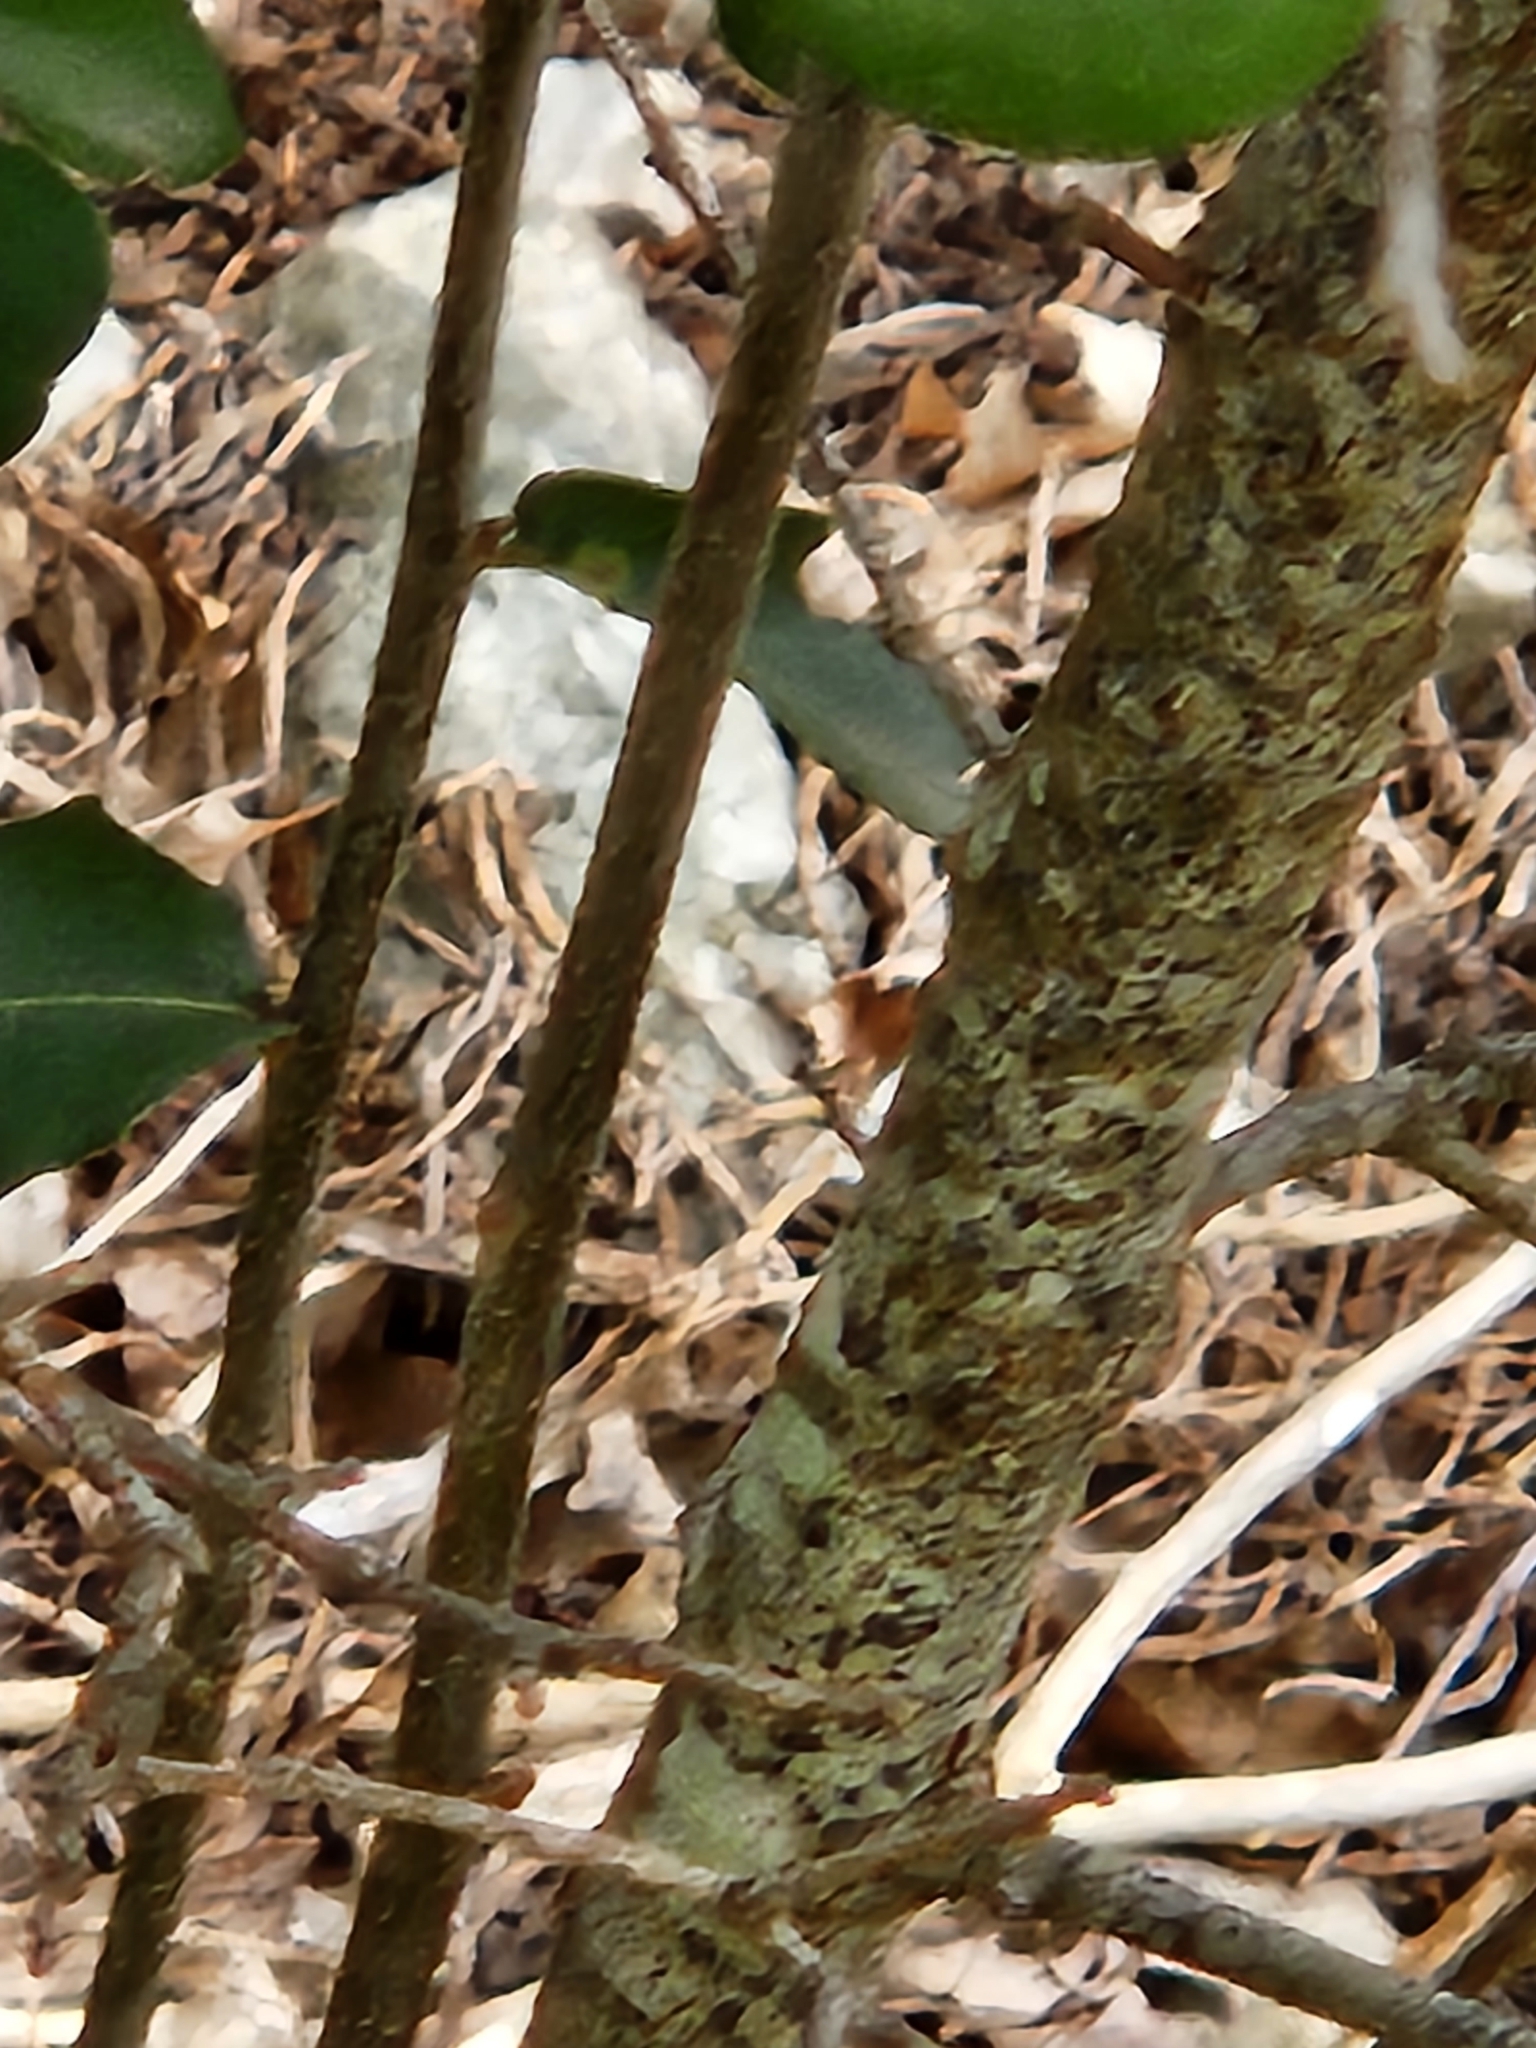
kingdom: Plantae
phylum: Tracheophyta
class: Magnoliopsida
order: Fagales
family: Fagaceae
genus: Quercus
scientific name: Quercus fusiformis
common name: Texas live oak
